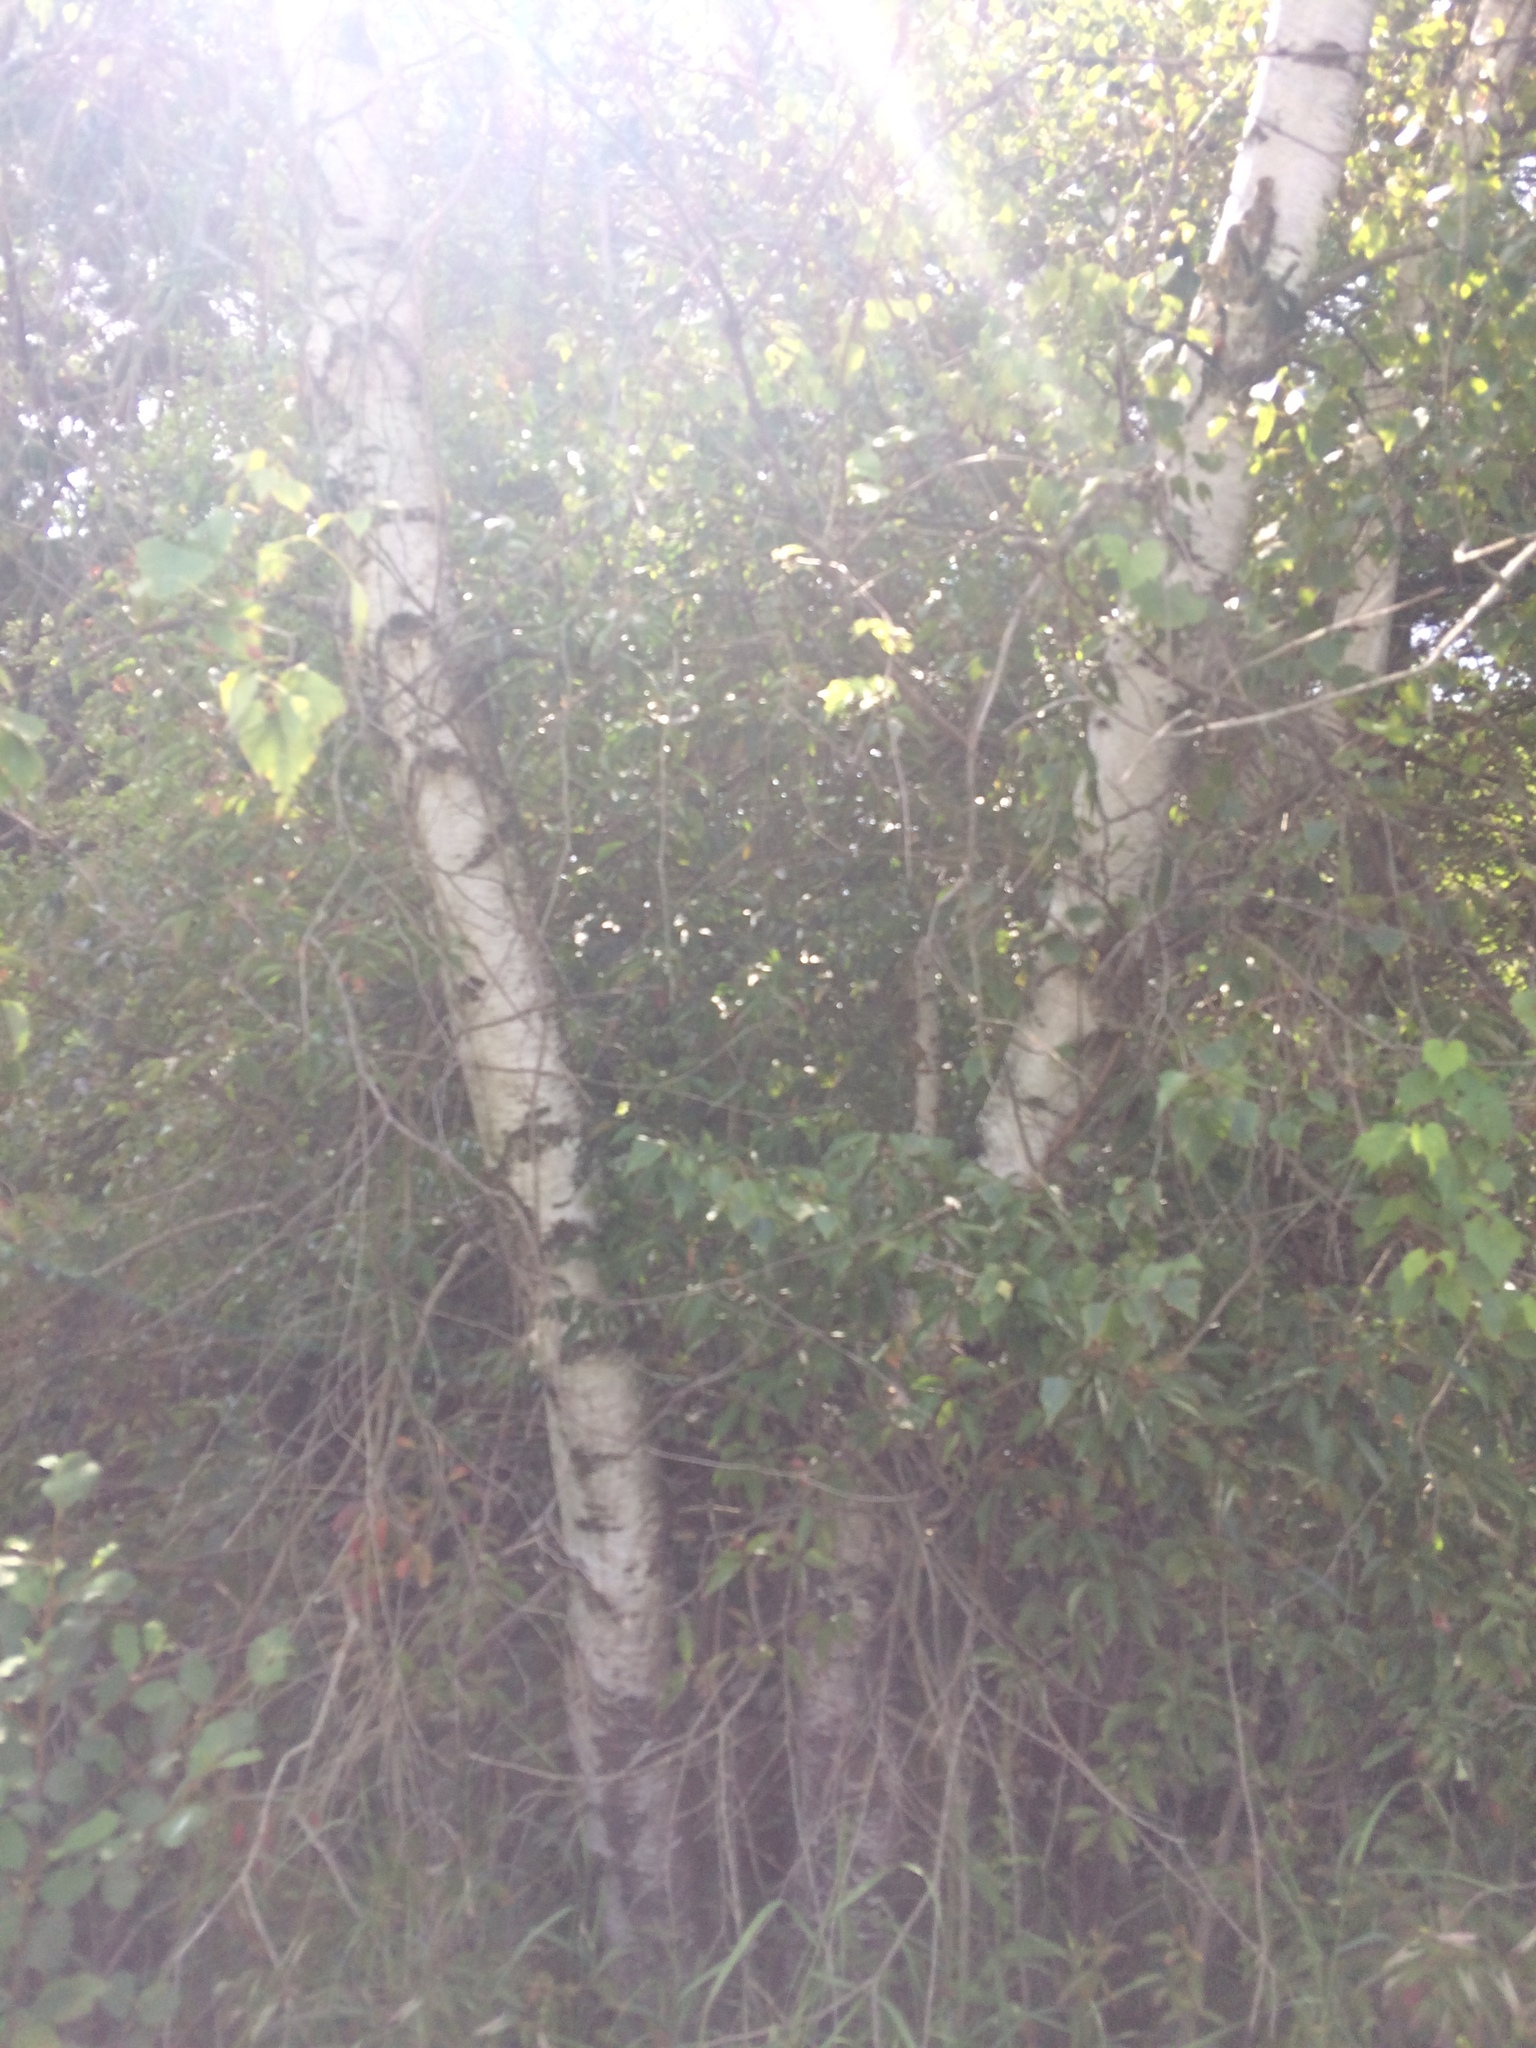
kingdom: Plantae
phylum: Tracheophyta
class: Magnoliopsida
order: Fagales
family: Betulaceae
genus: Betula
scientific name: Betula populifolia
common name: Fire birch
